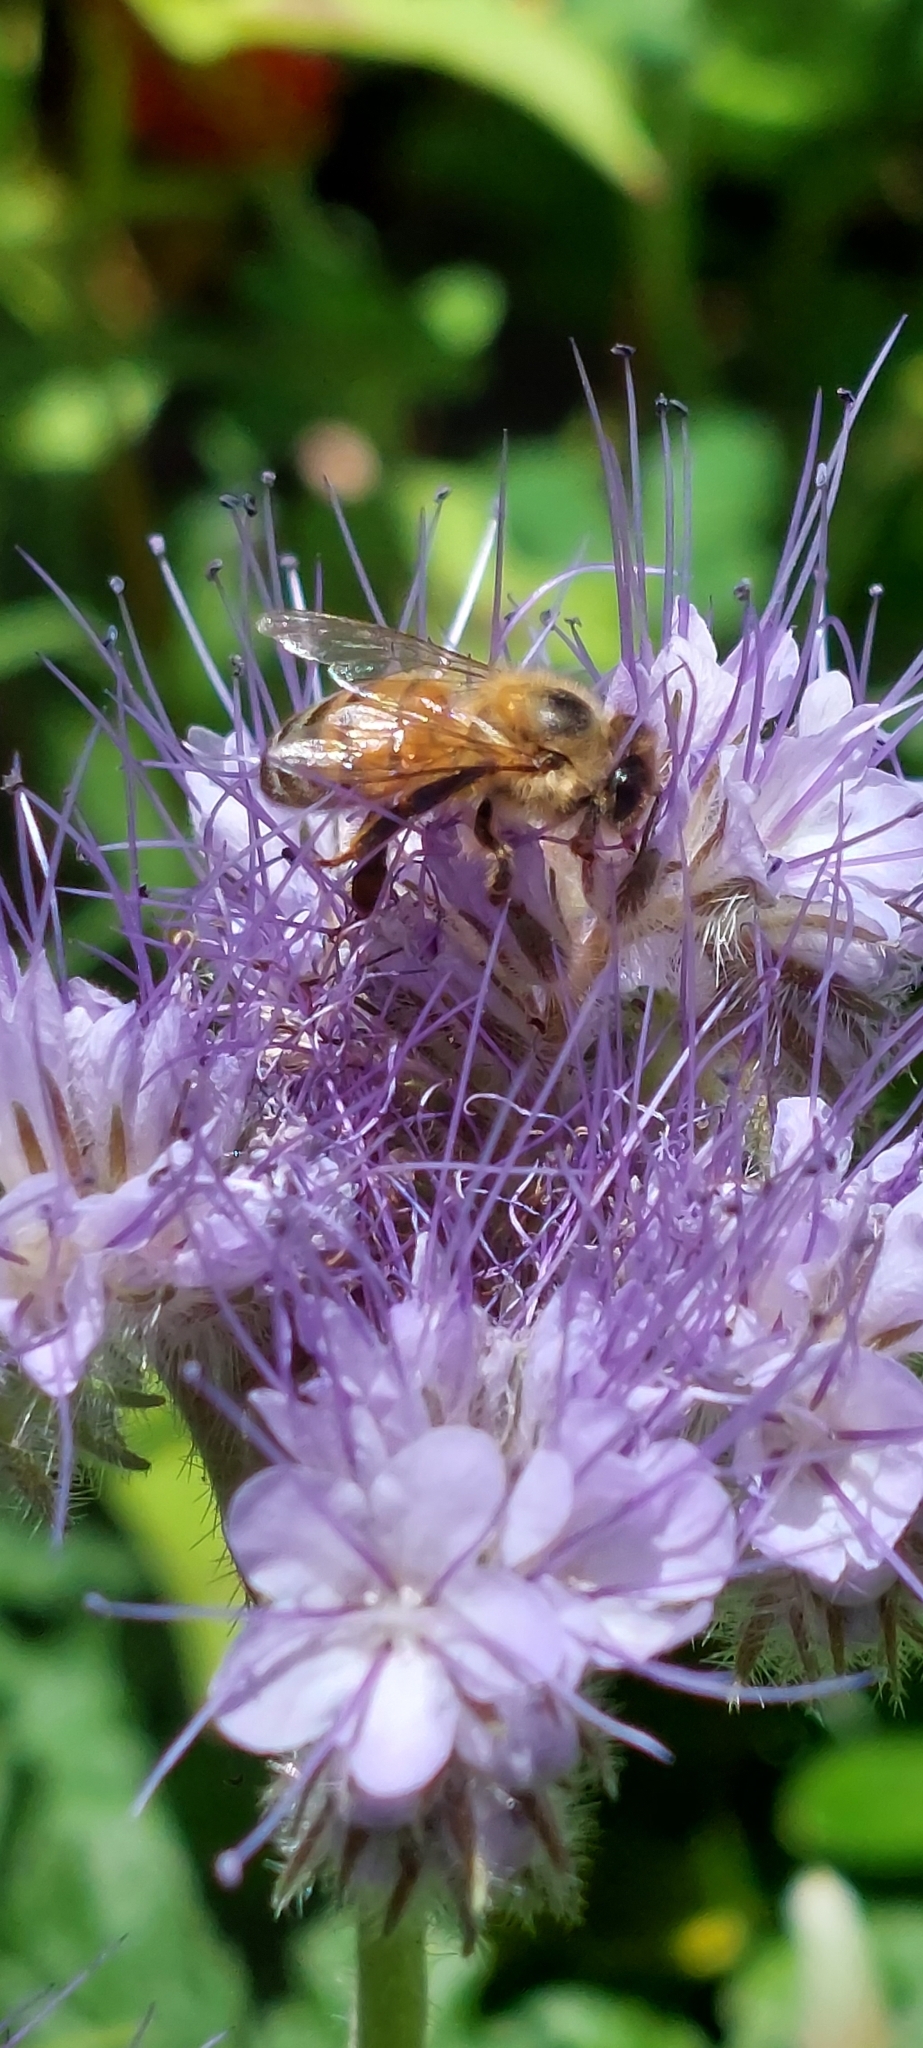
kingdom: Animalia
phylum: Arthropoda
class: Insecta
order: Hymenoptera
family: Apidae
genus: Apis
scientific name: Apis mellifera
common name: Honey bee
